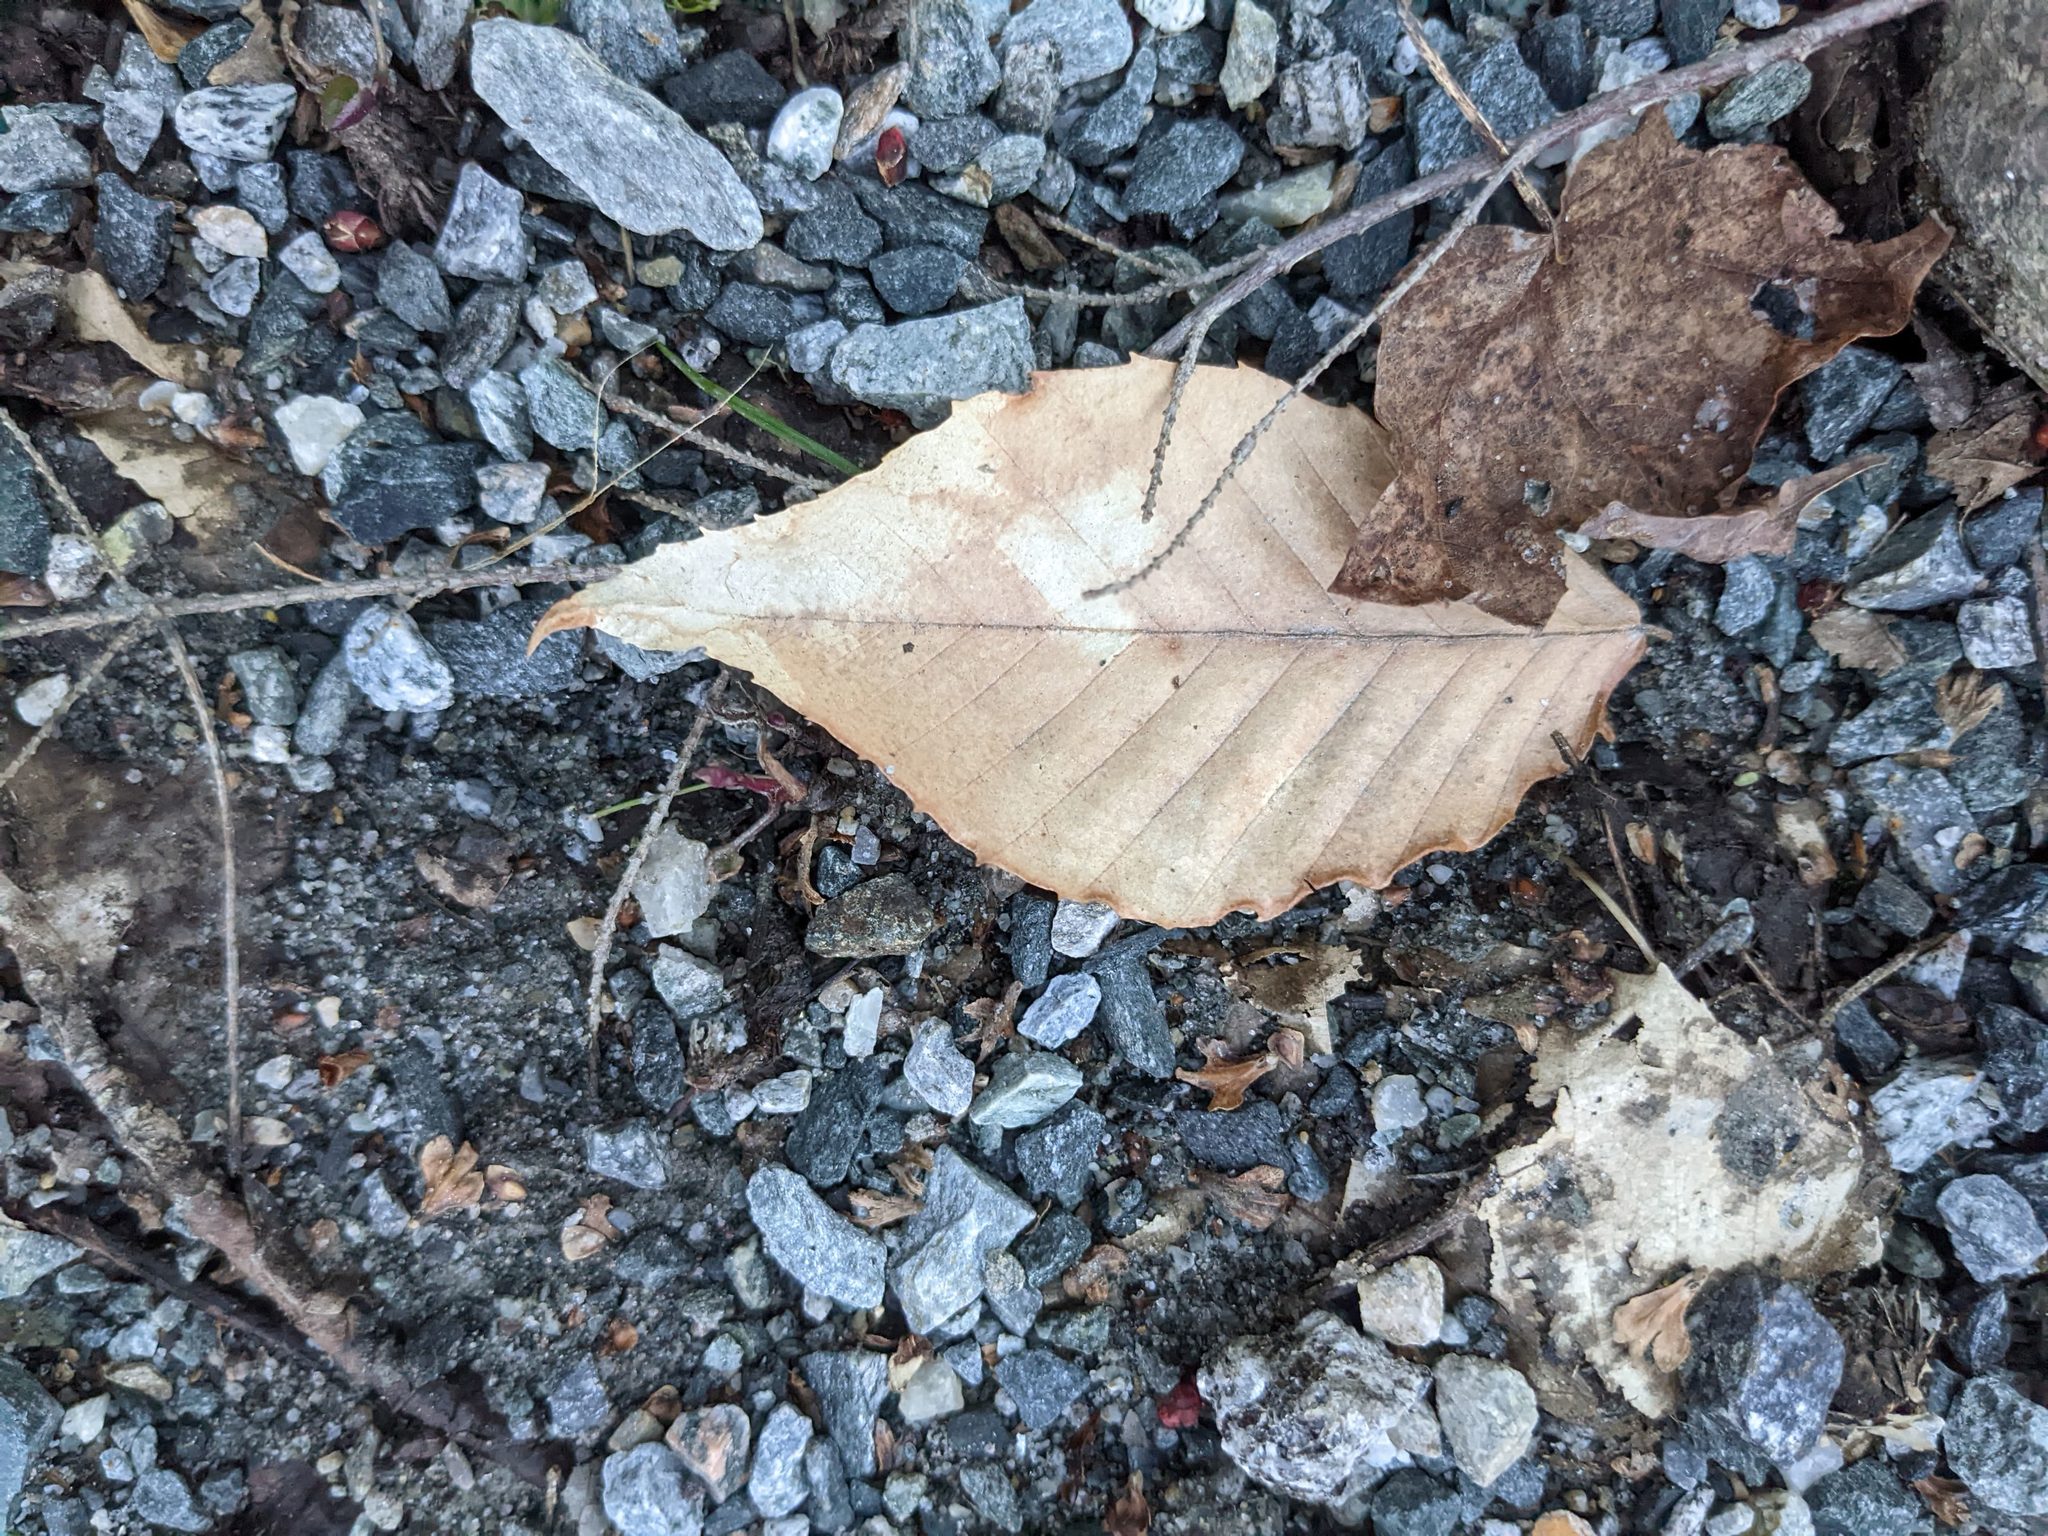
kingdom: Plantae
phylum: Tracheophyta
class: Magnoliopsida
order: Fagales
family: Fagaceae
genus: Fagus
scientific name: Fagus grandifolia
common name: American beech
